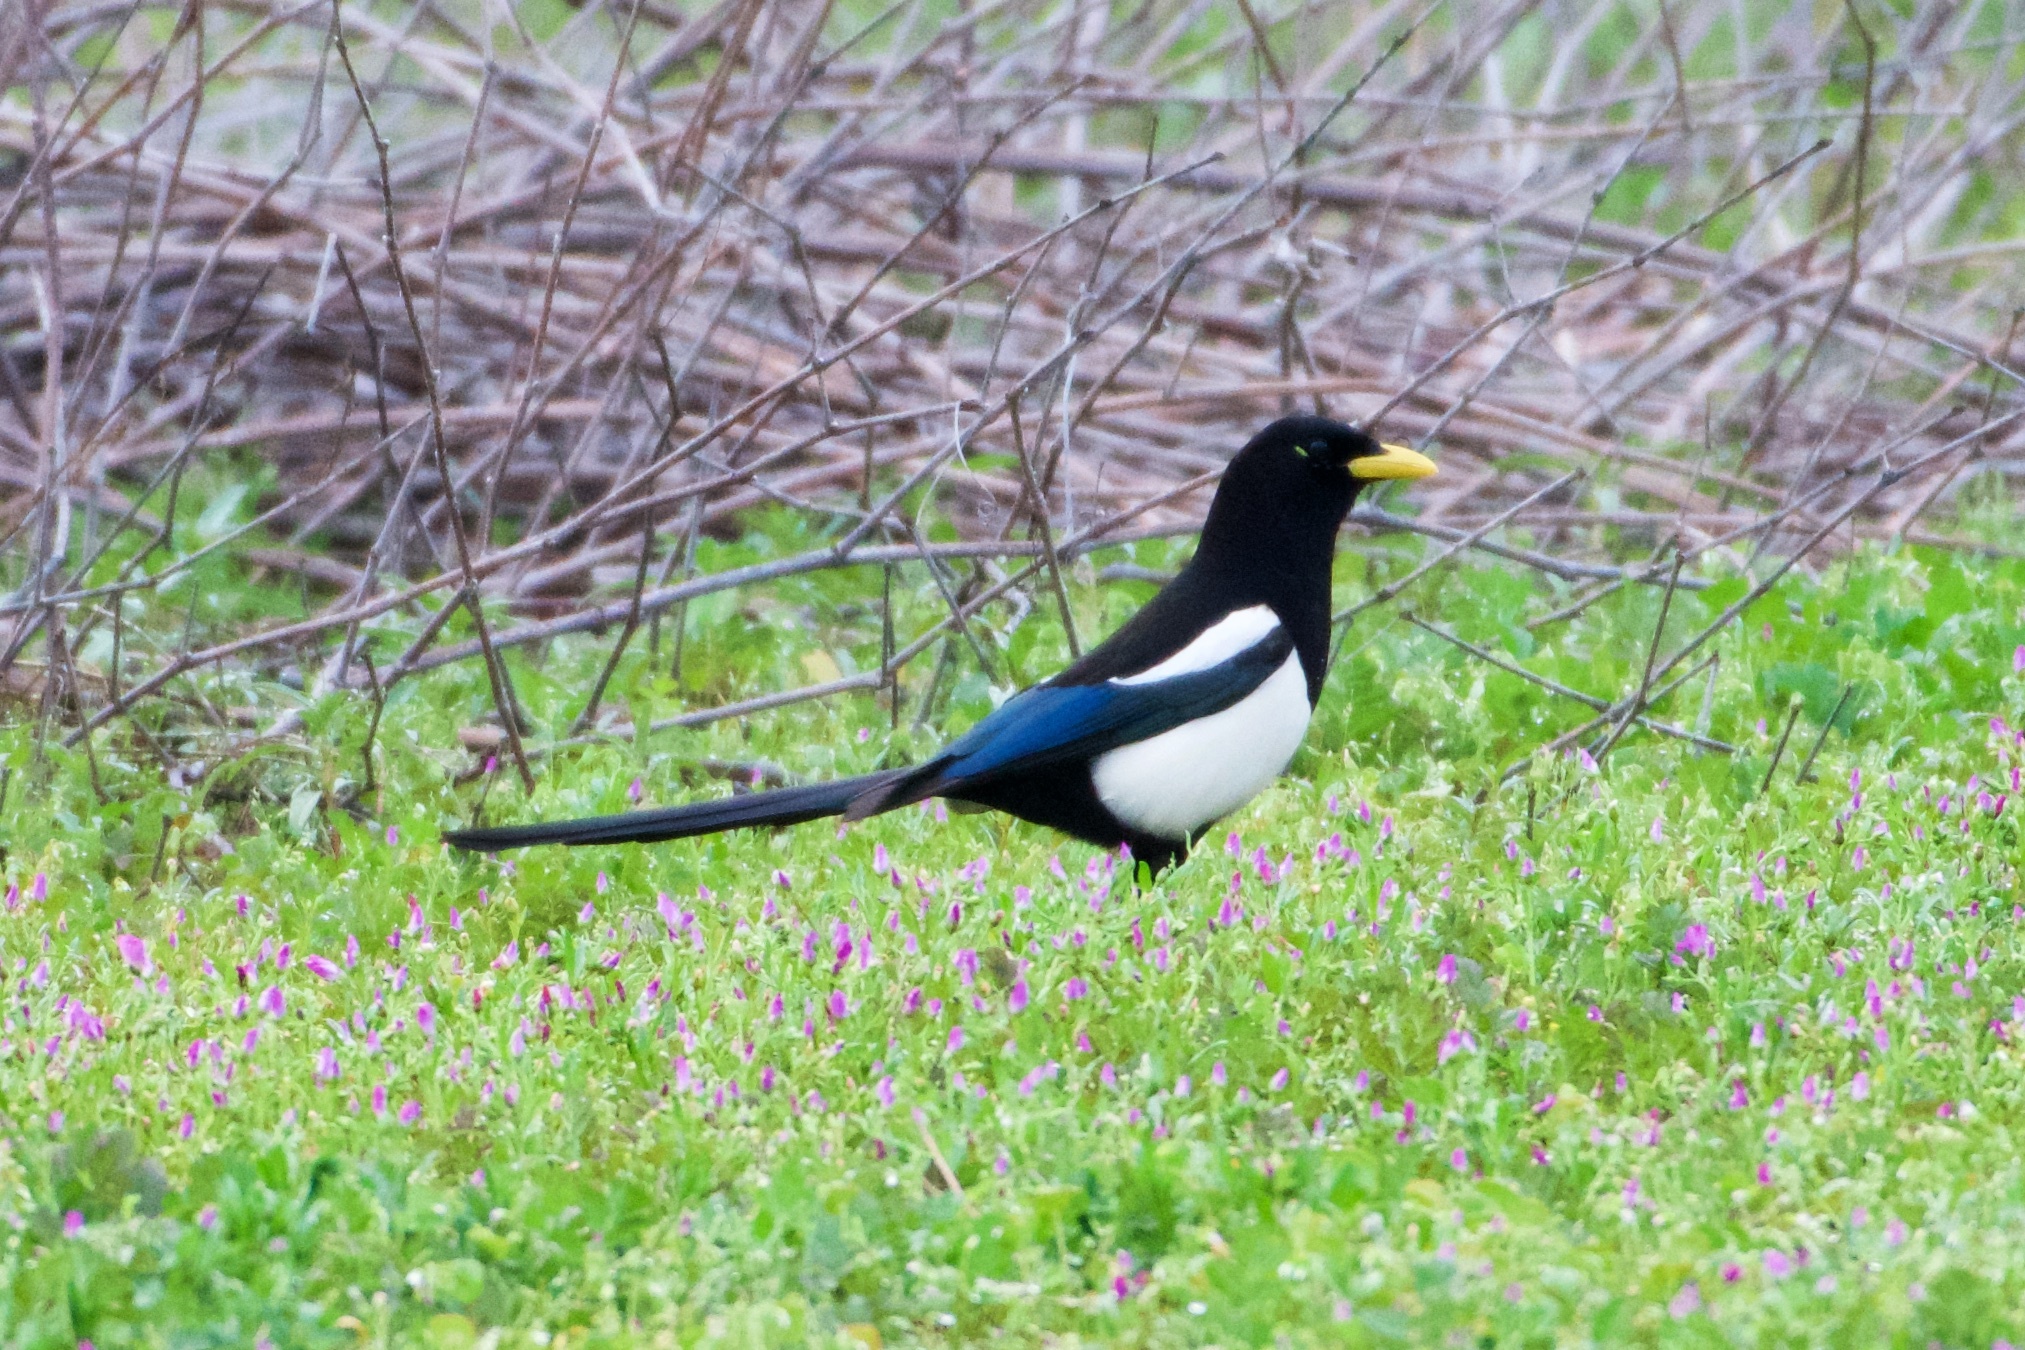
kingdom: Animalia
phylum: Chordata
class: Aves
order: Passeriformes
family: Corvidae
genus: Pica
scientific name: Pica nuttalli
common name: Yellow-billed magpie
